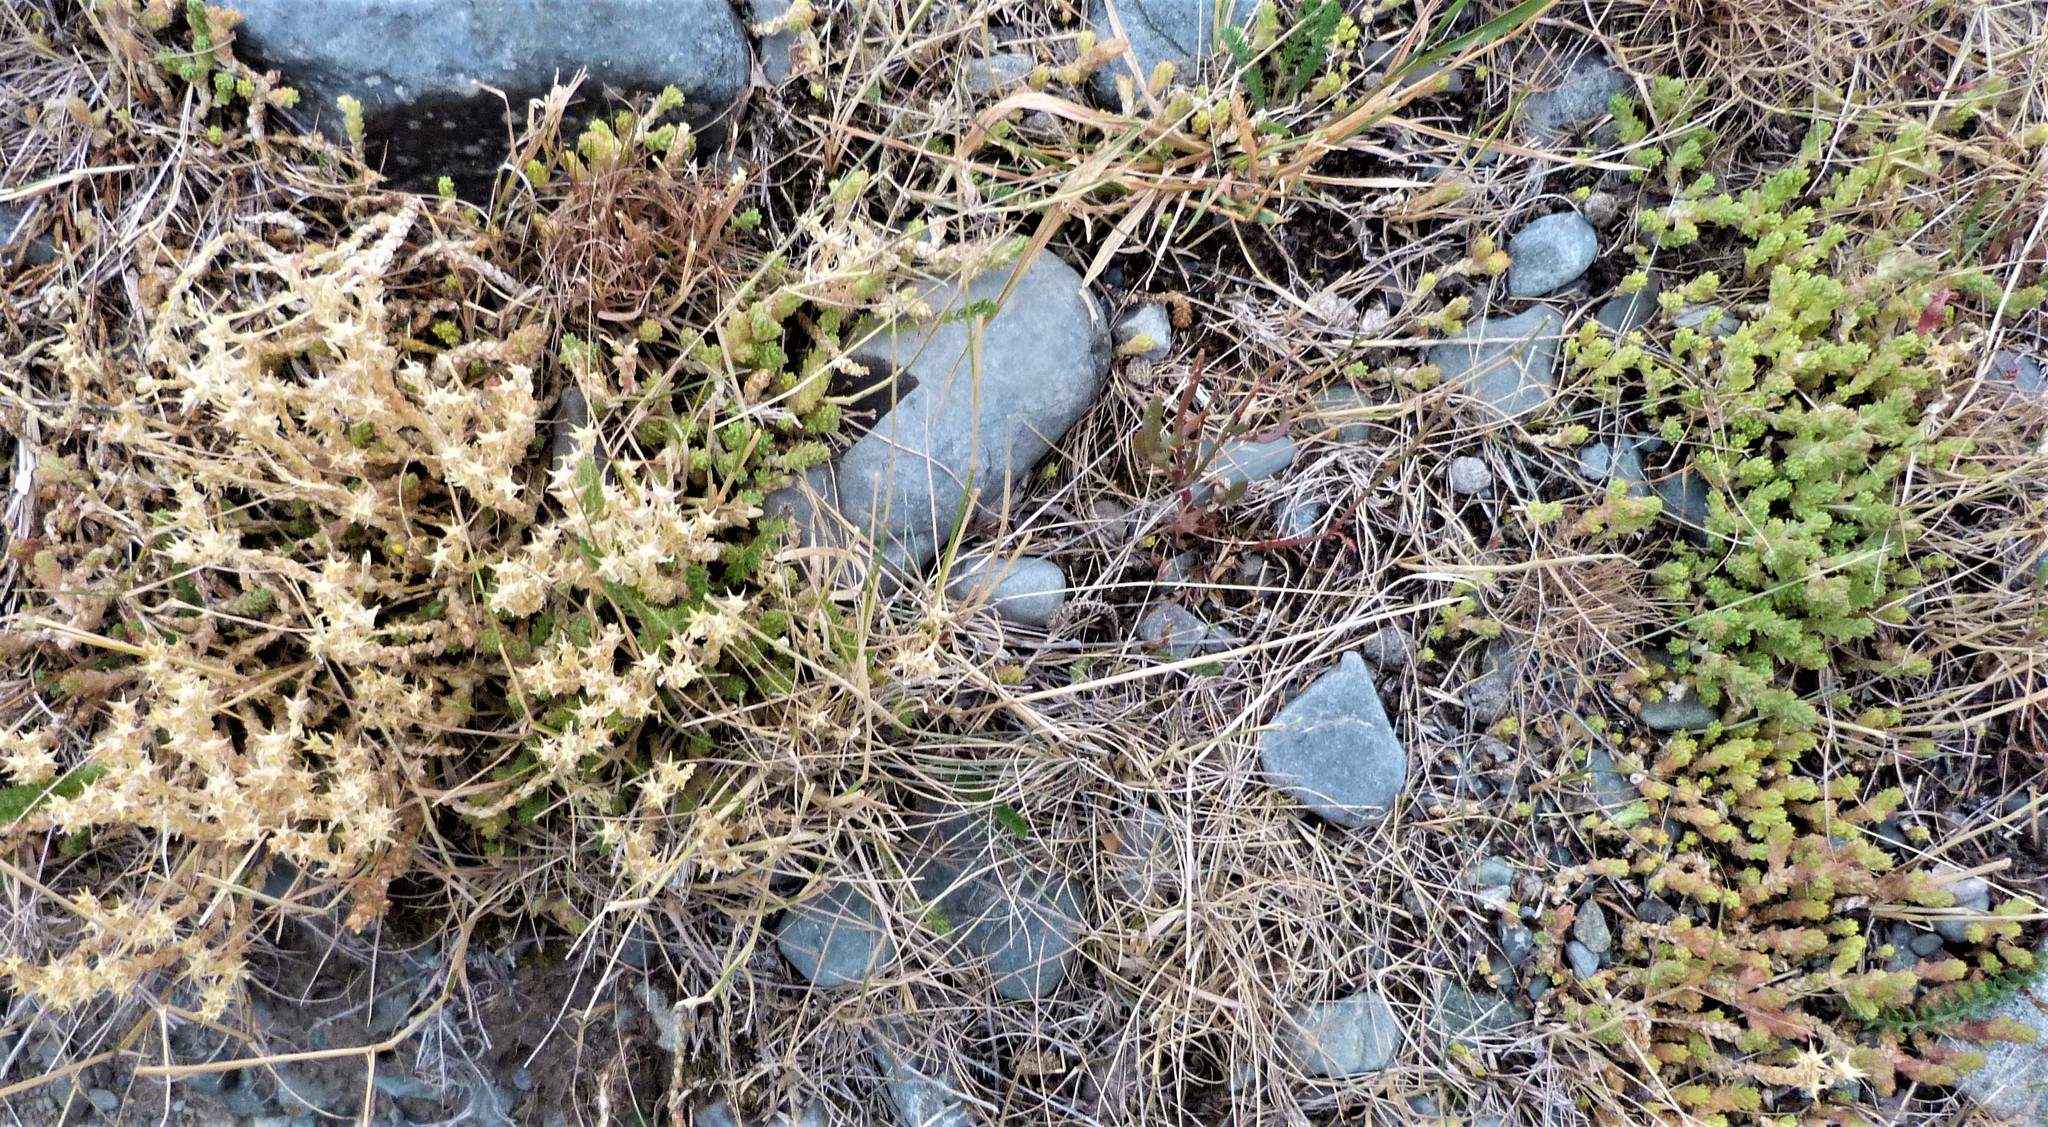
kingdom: Plantae
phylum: Tracheophyta
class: Magnoliopsida
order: Saxifragales
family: Crassulaceae
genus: Sedum
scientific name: Sedum acre
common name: Biting stonecrop
